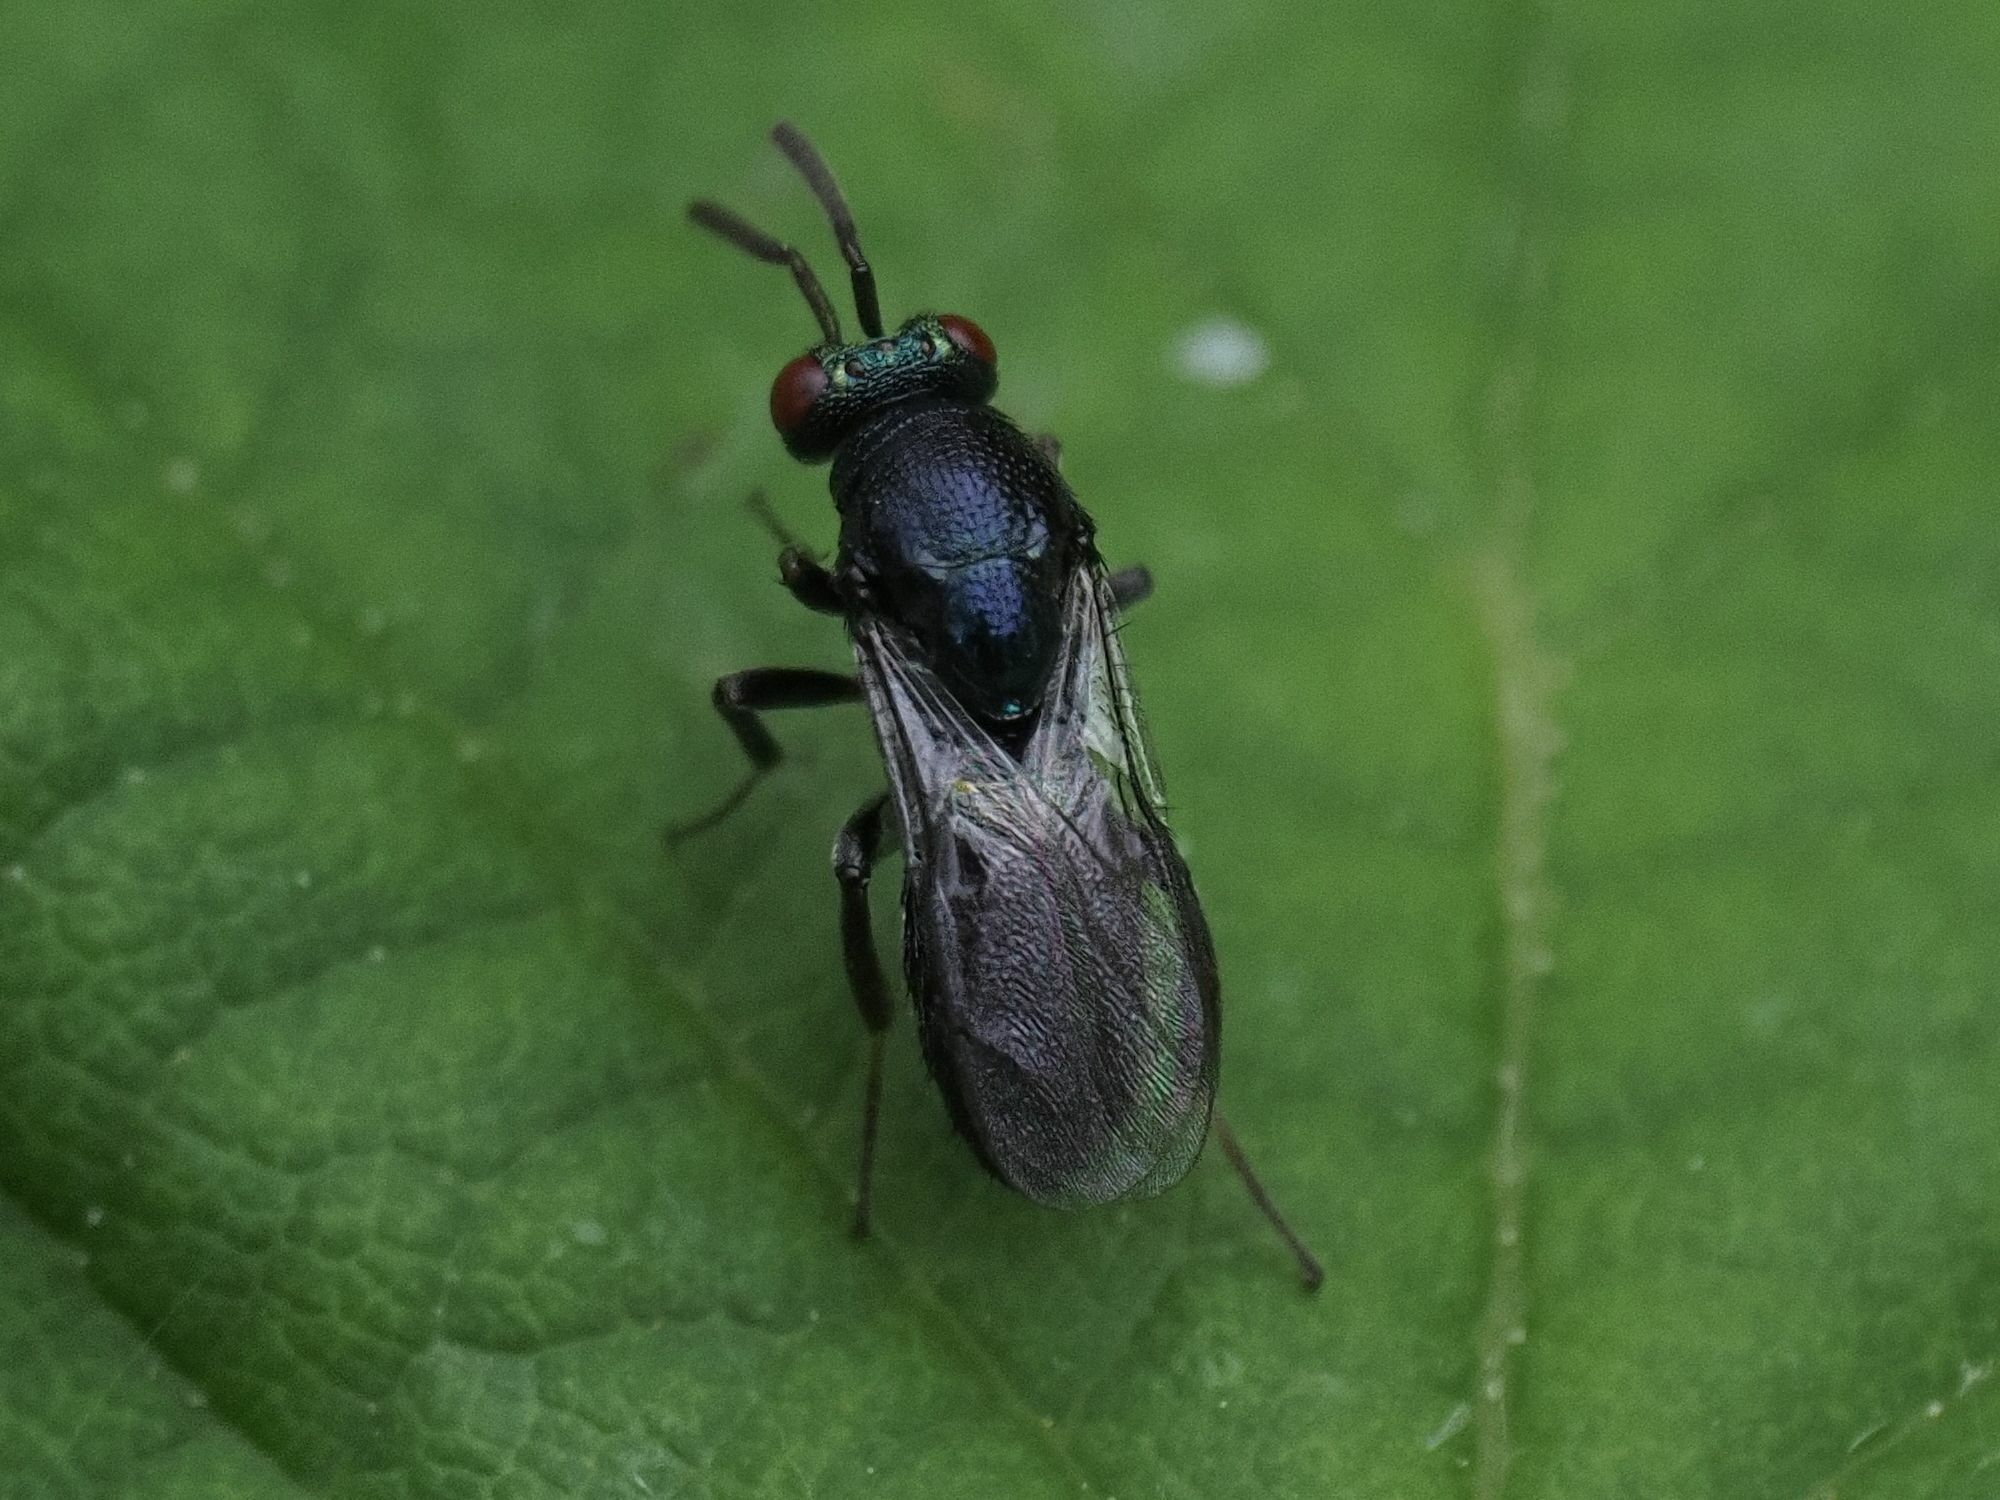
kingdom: Animalia
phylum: Arthropoda
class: Insecta
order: Hymenoptera
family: Ormyridae
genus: Ormyrus
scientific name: Ormyrus nitidulus
